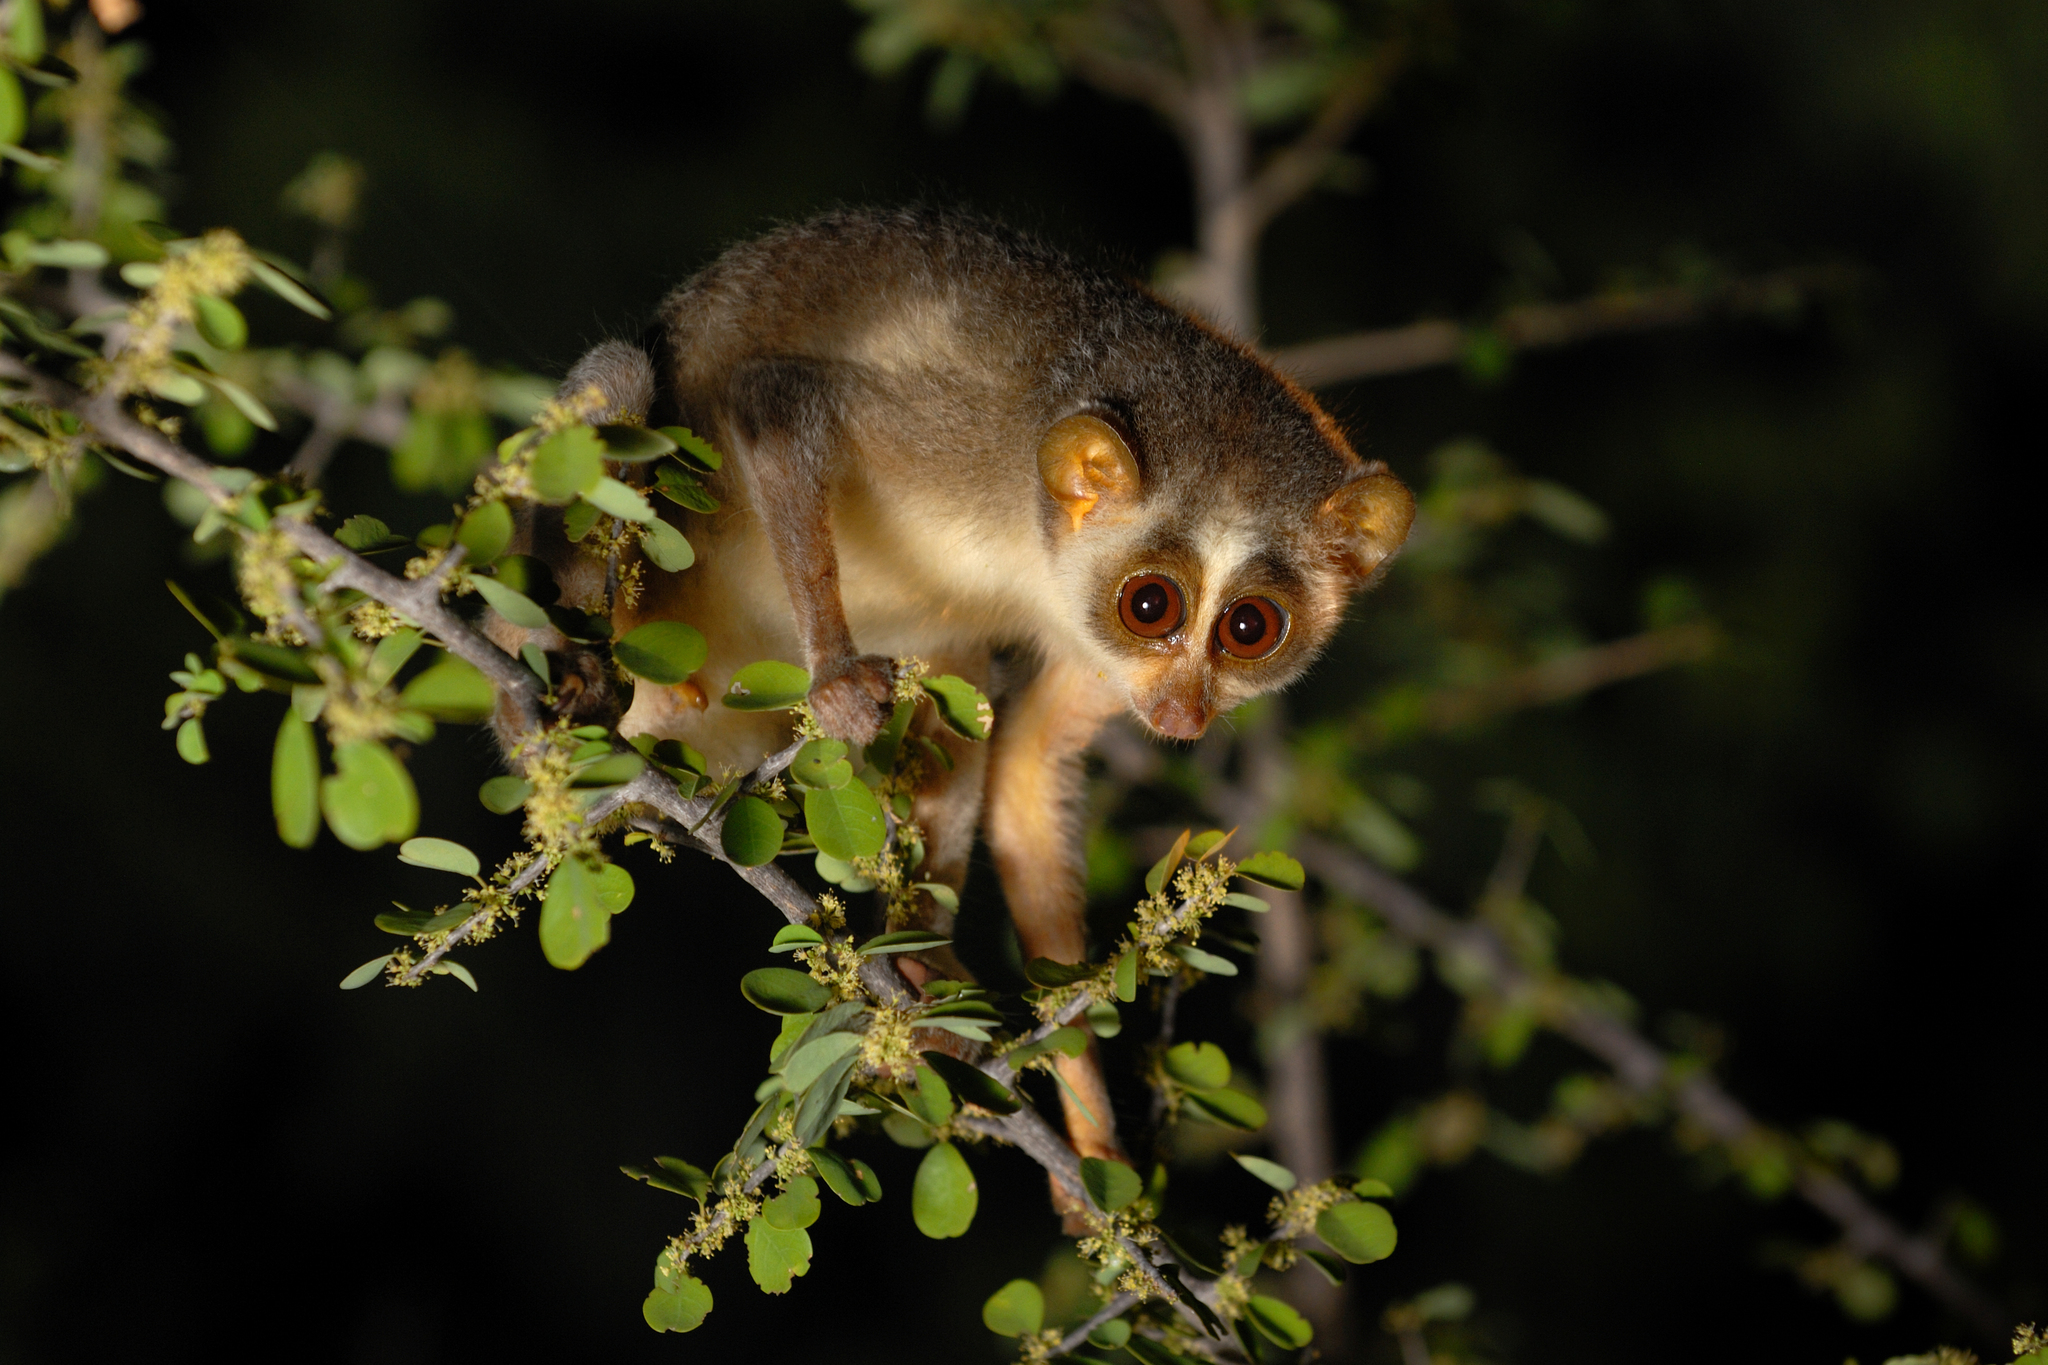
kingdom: Animalia
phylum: Chordata
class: Mammalia
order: Primates
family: Lorisidae
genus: Loris
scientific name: Loris lydekkerianus
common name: Gray slender loris
